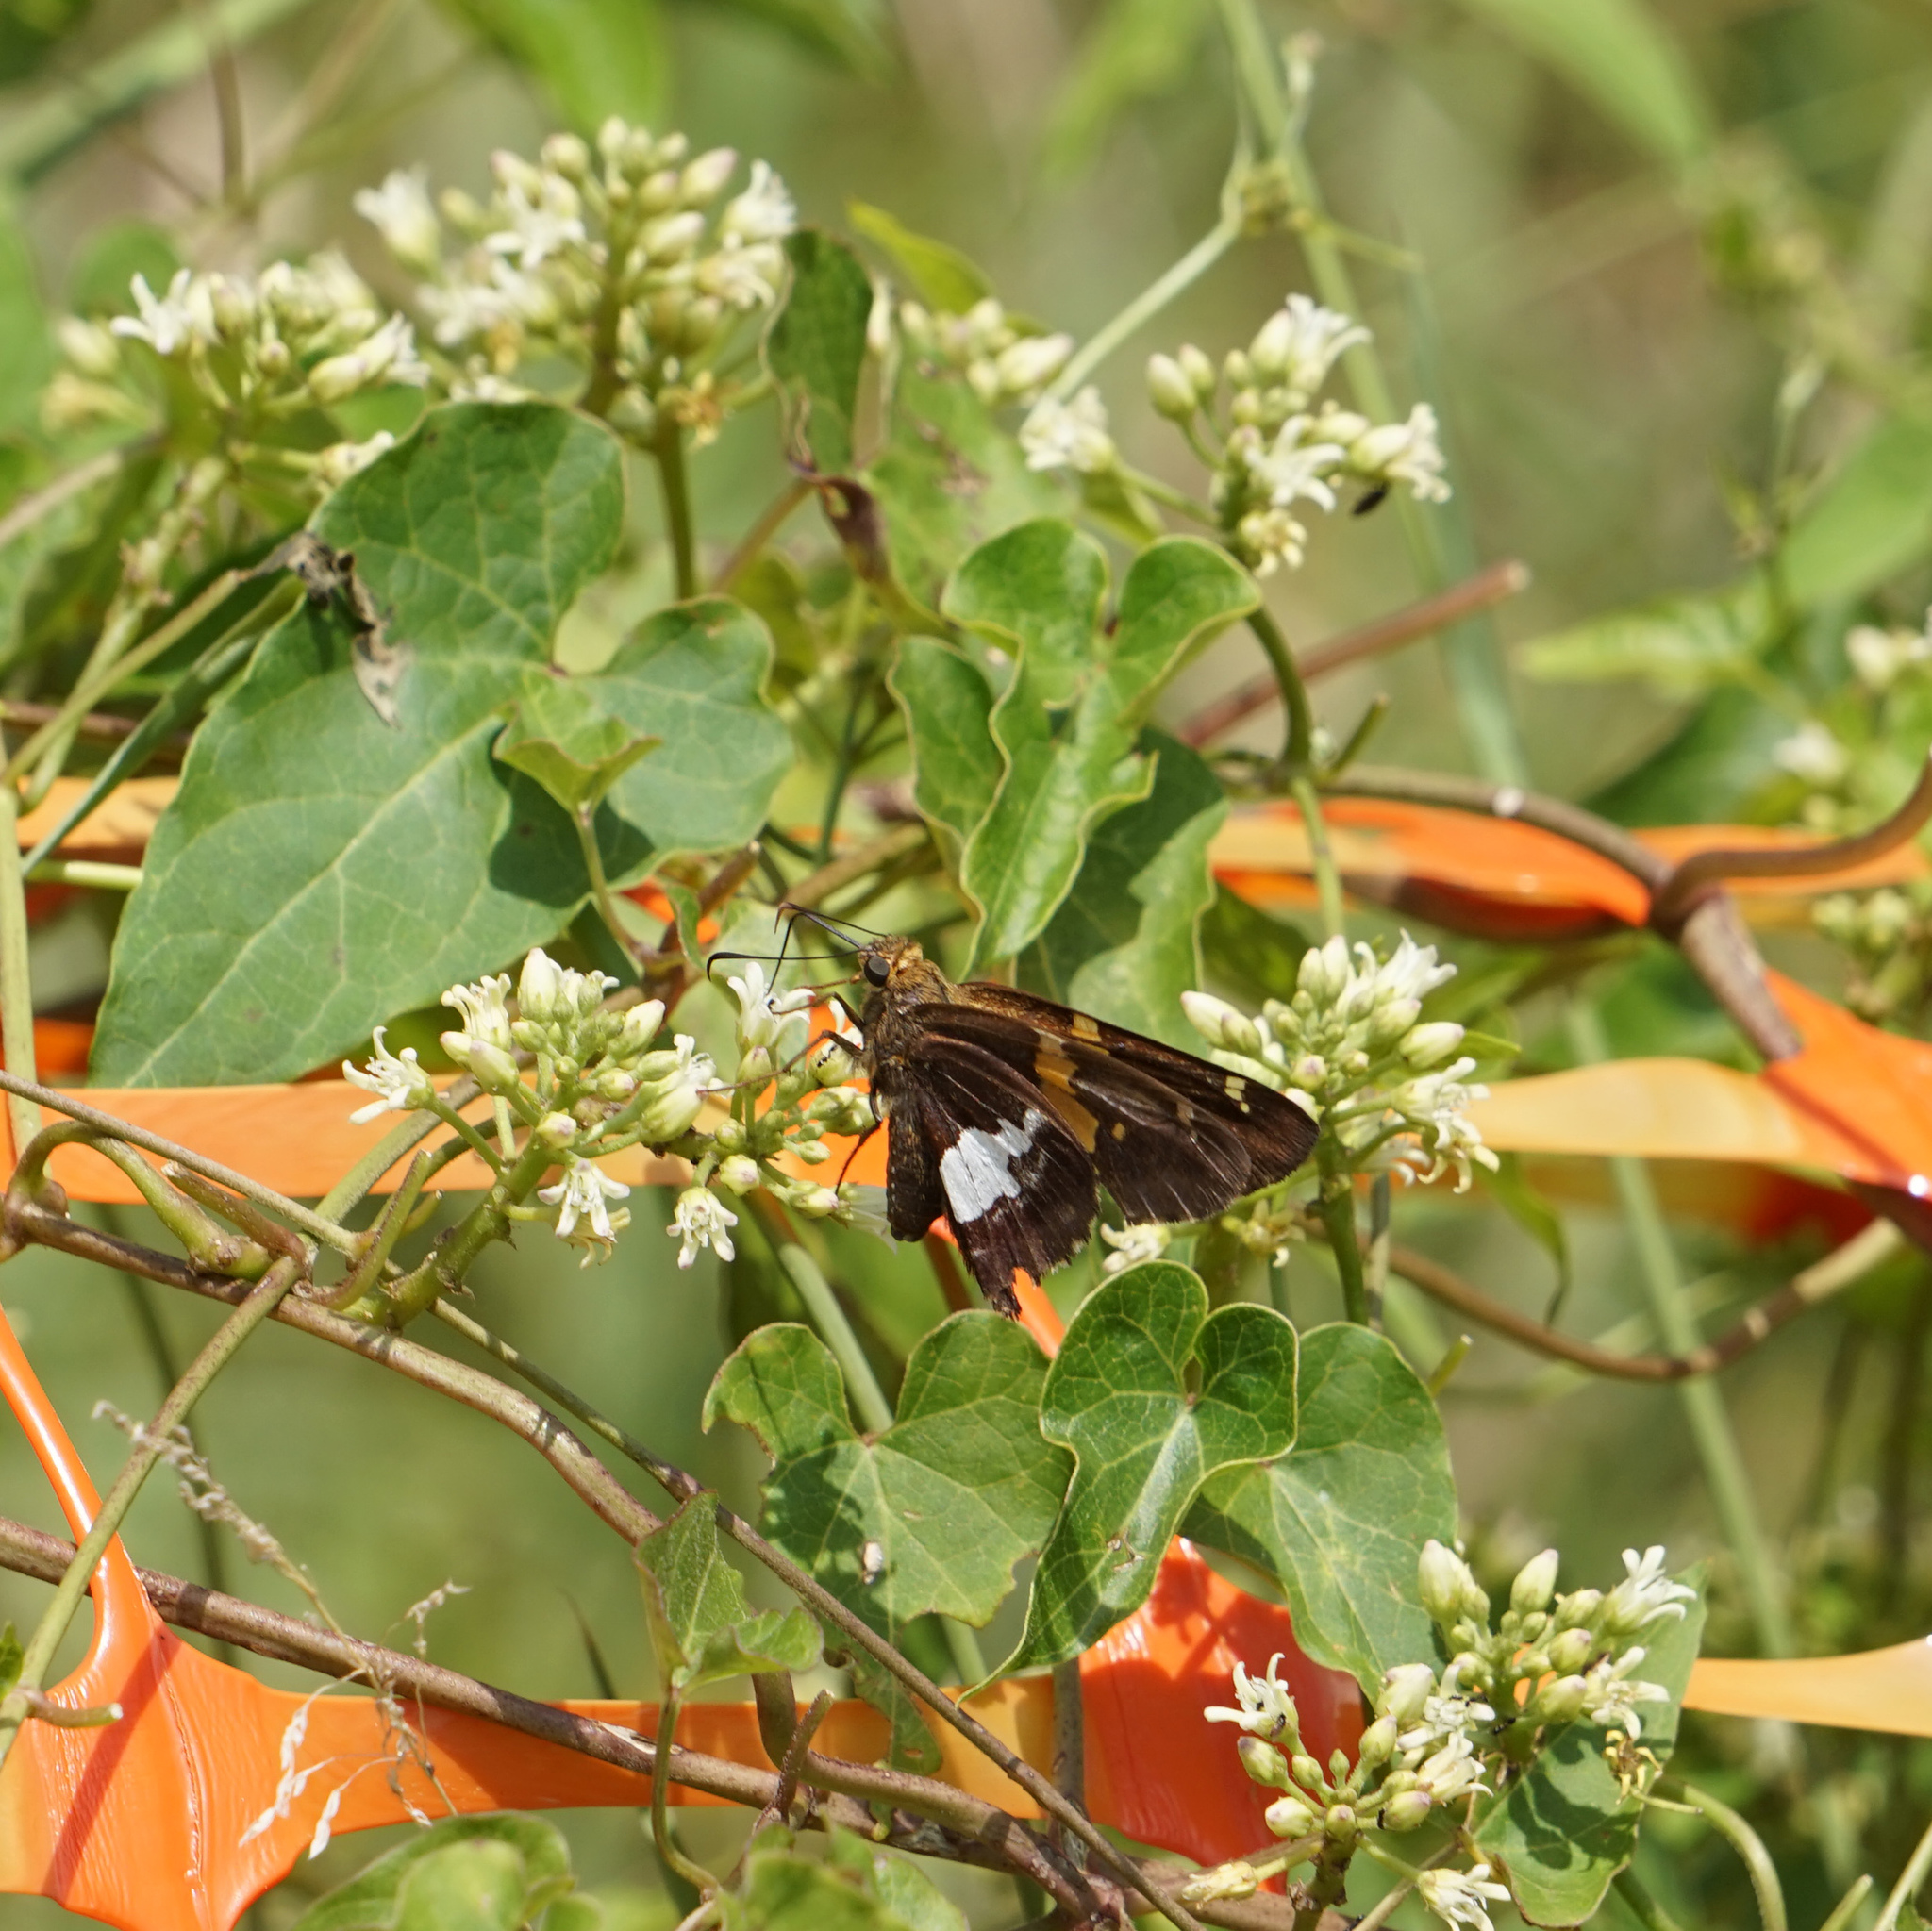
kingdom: Animalia
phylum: Arthropoda
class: Insecta
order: Lepidoptera
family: Hesperiidae
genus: Epargyreus
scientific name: Epargyreus clarus
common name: Silver-spotted skipper
